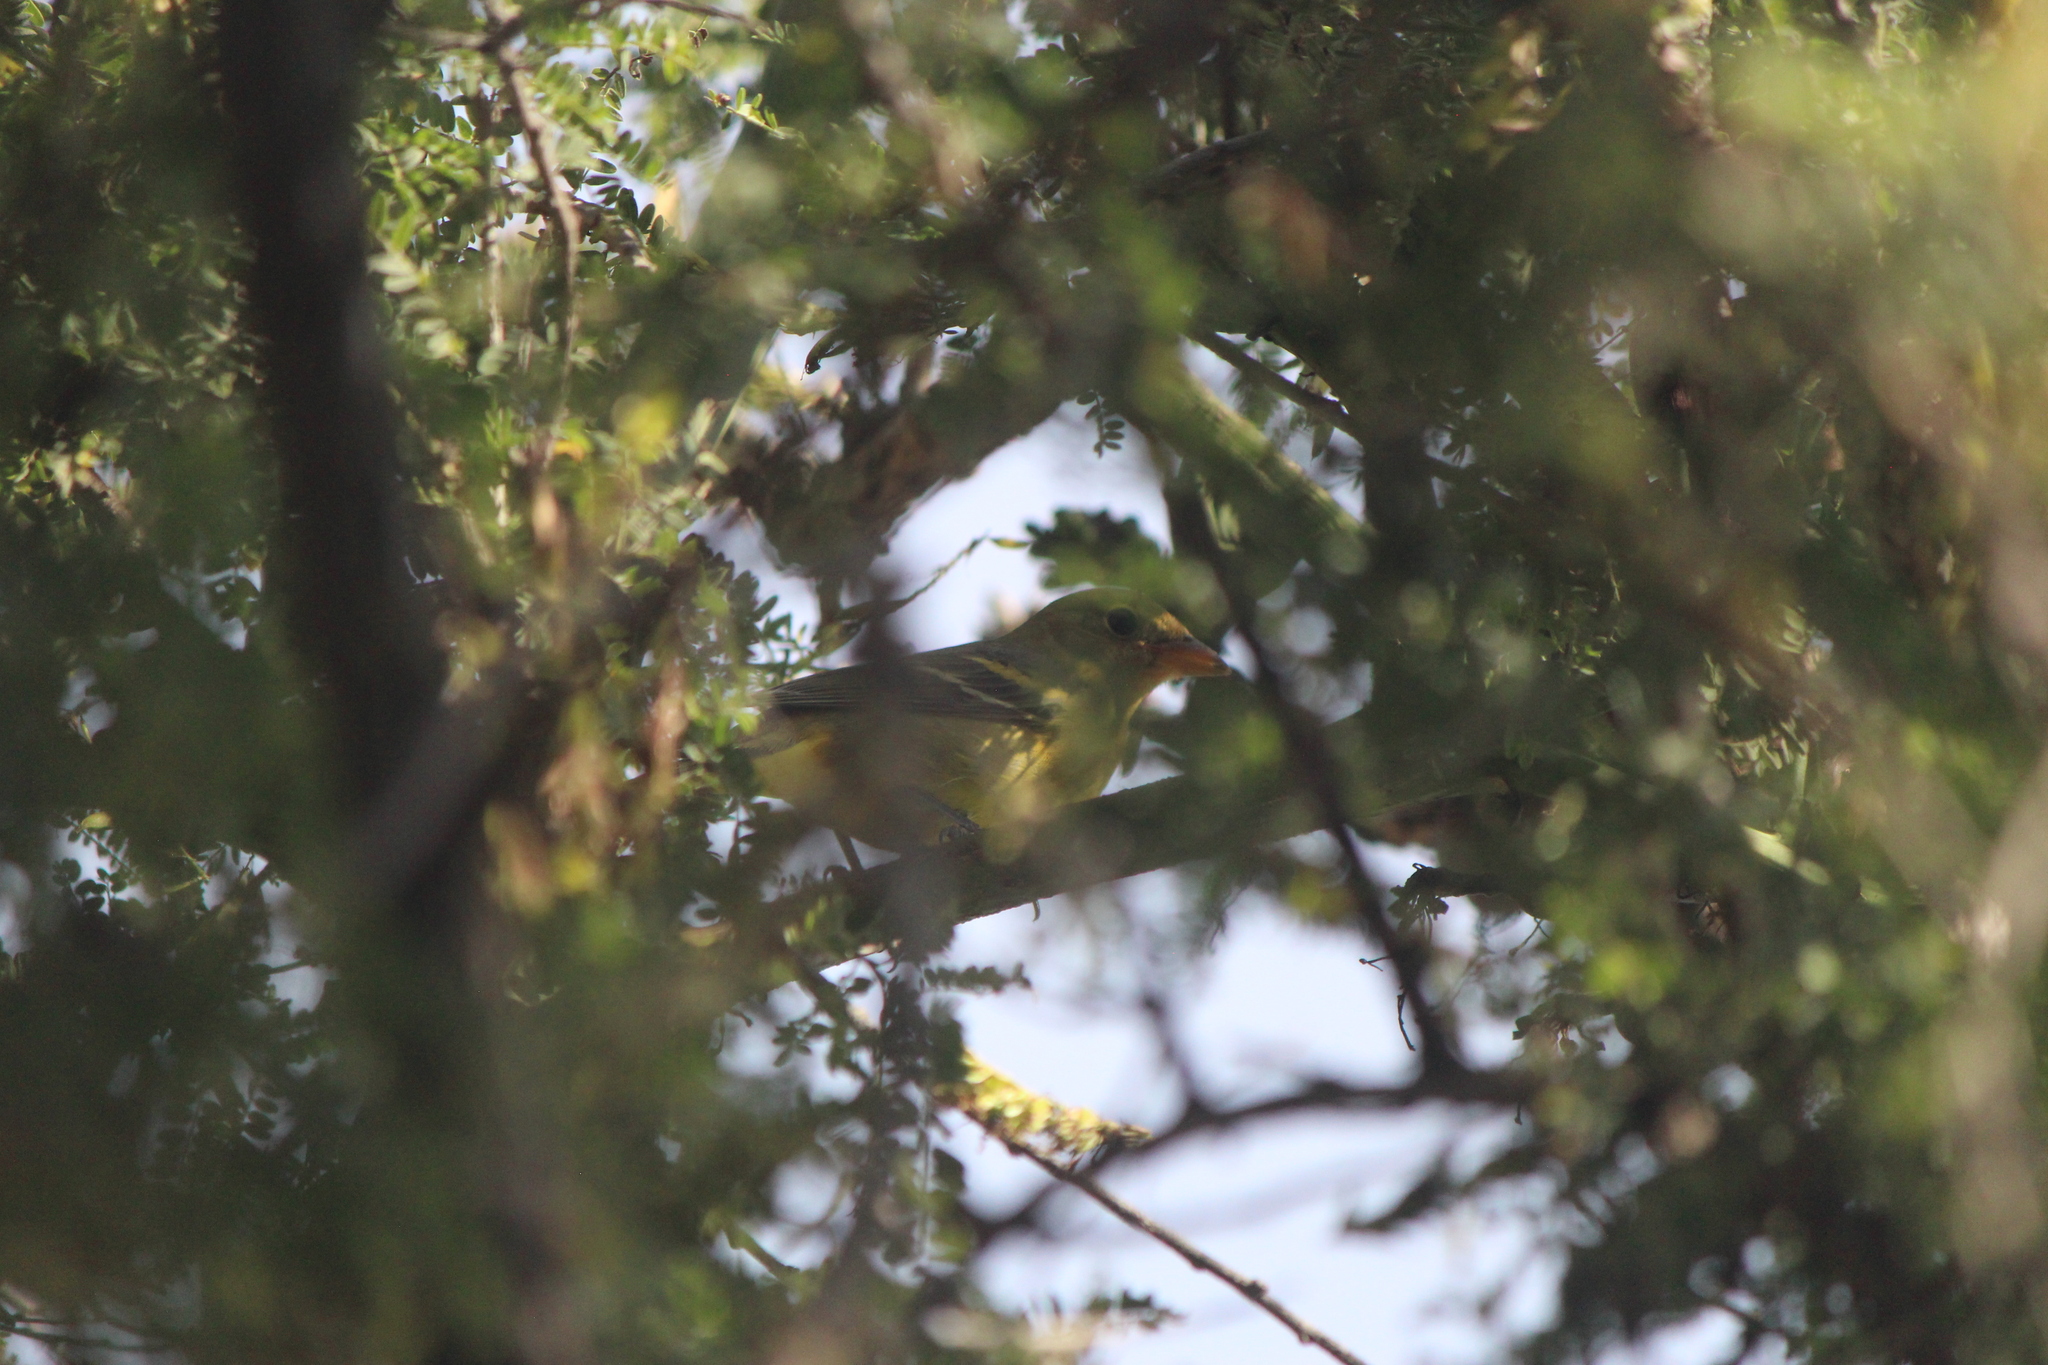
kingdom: Animalia
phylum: Chordata
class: Aves
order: Passeriformes
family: Cardinalidae
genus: Piranga
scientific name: Piranga ludoviciana
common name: Western tanager
